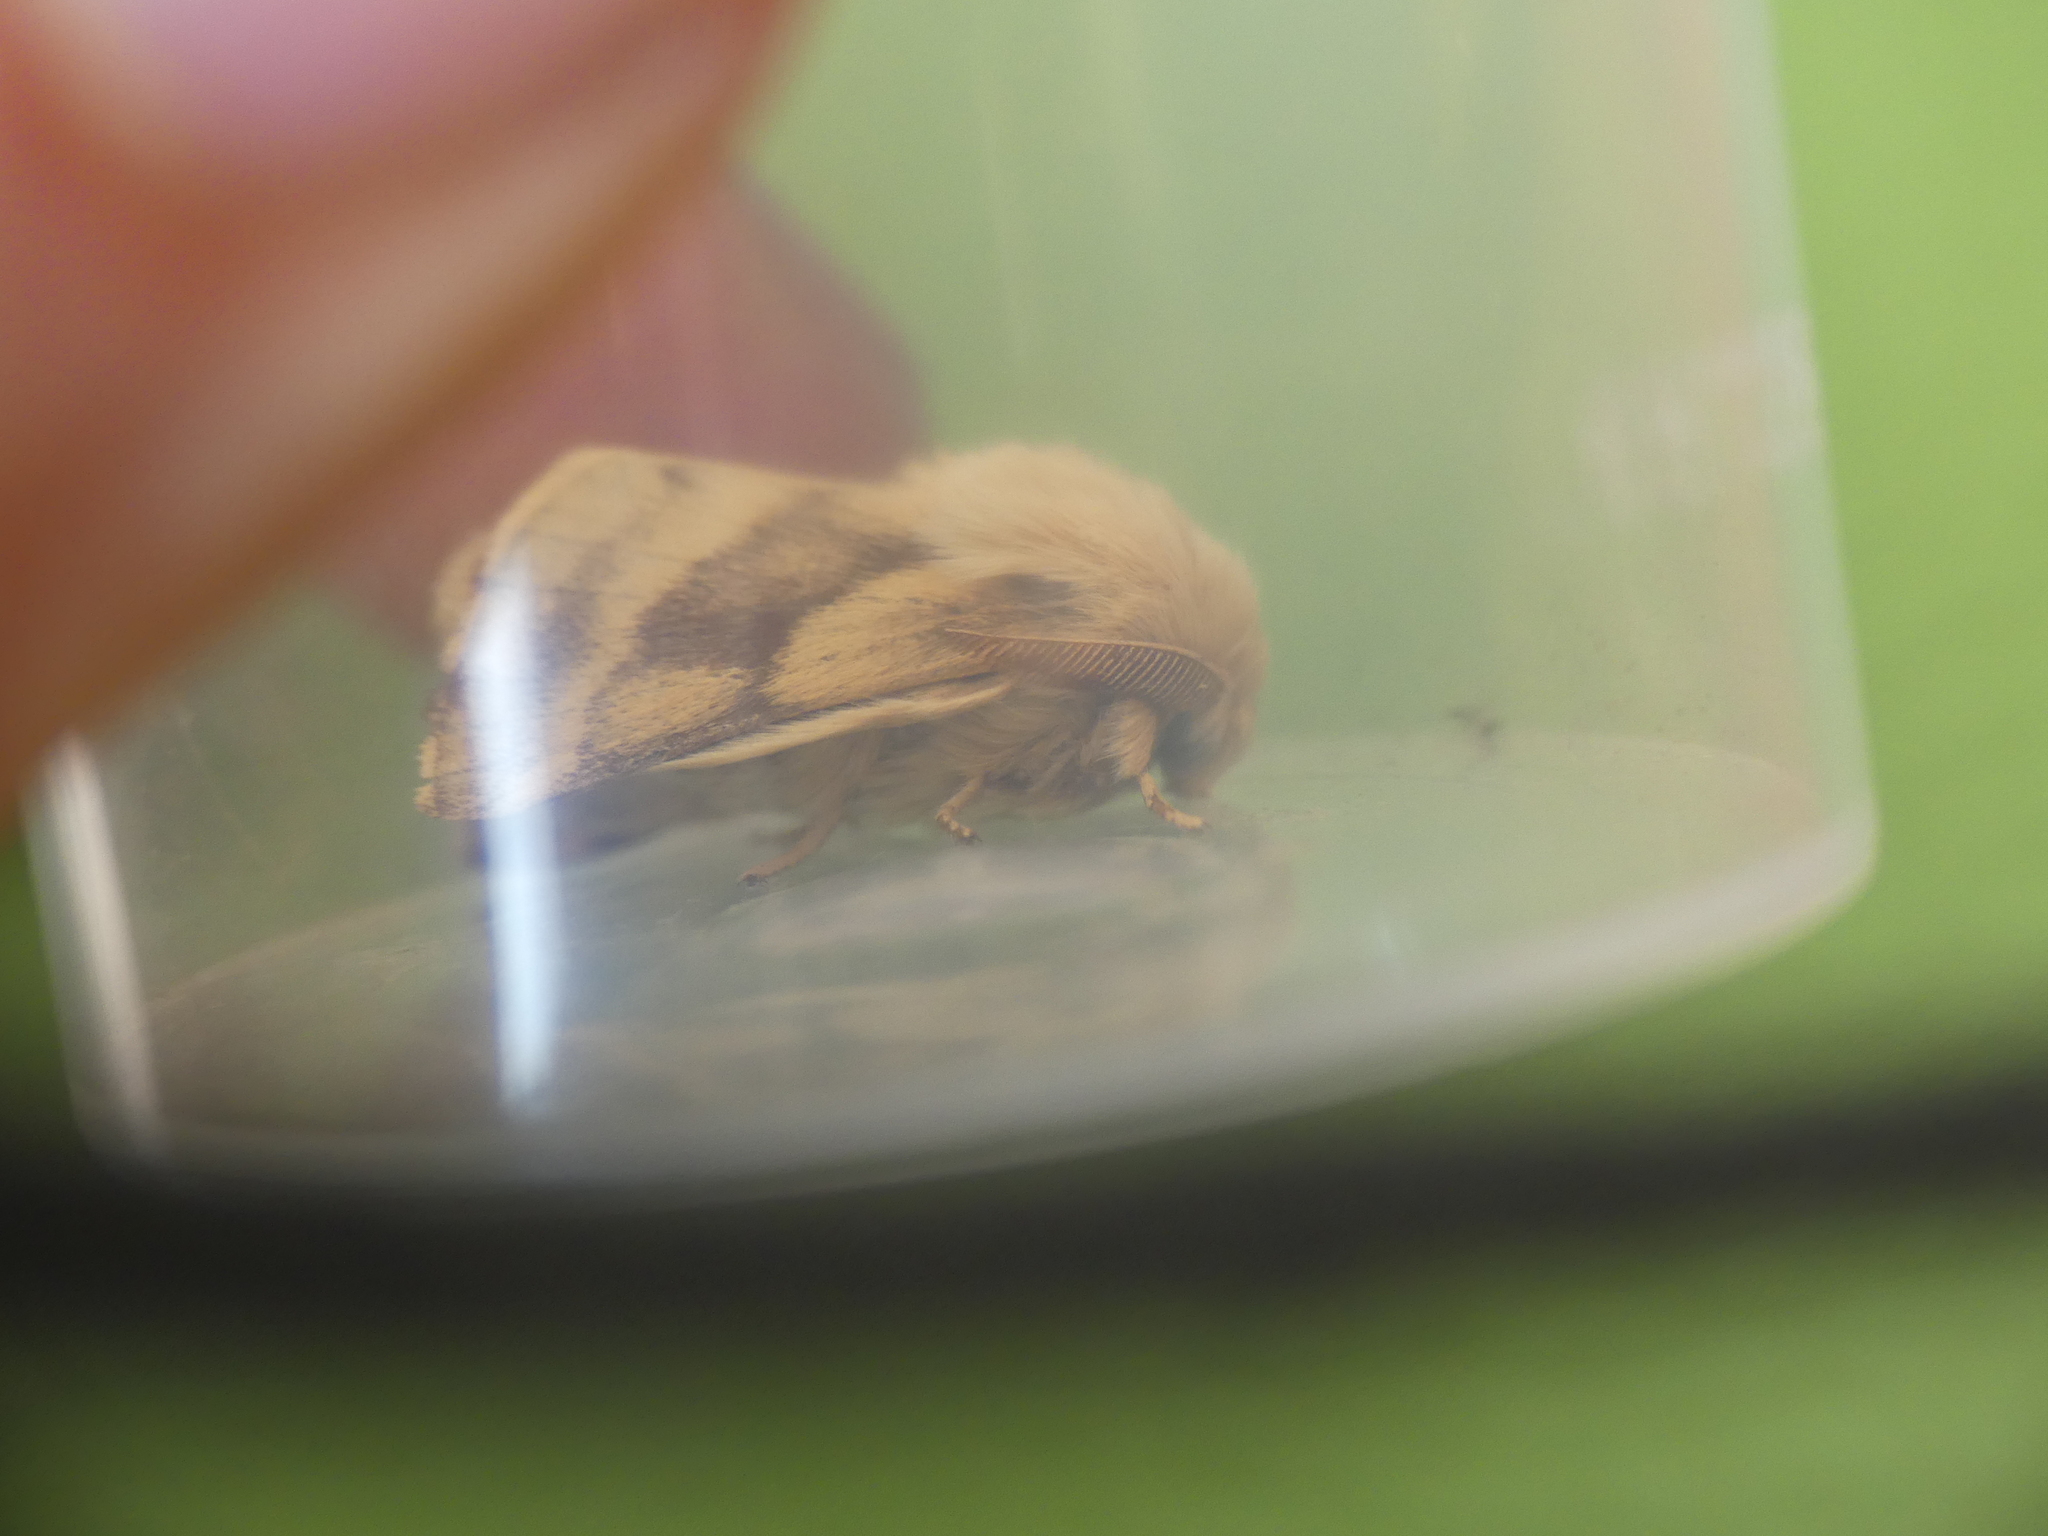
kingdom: Animalia
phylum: Arthropoda
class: Insecta
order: Lepidoptera
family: Lasiocampidae
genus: Malacosoma
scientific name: Malacosoma castrense
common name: Ground lackey
